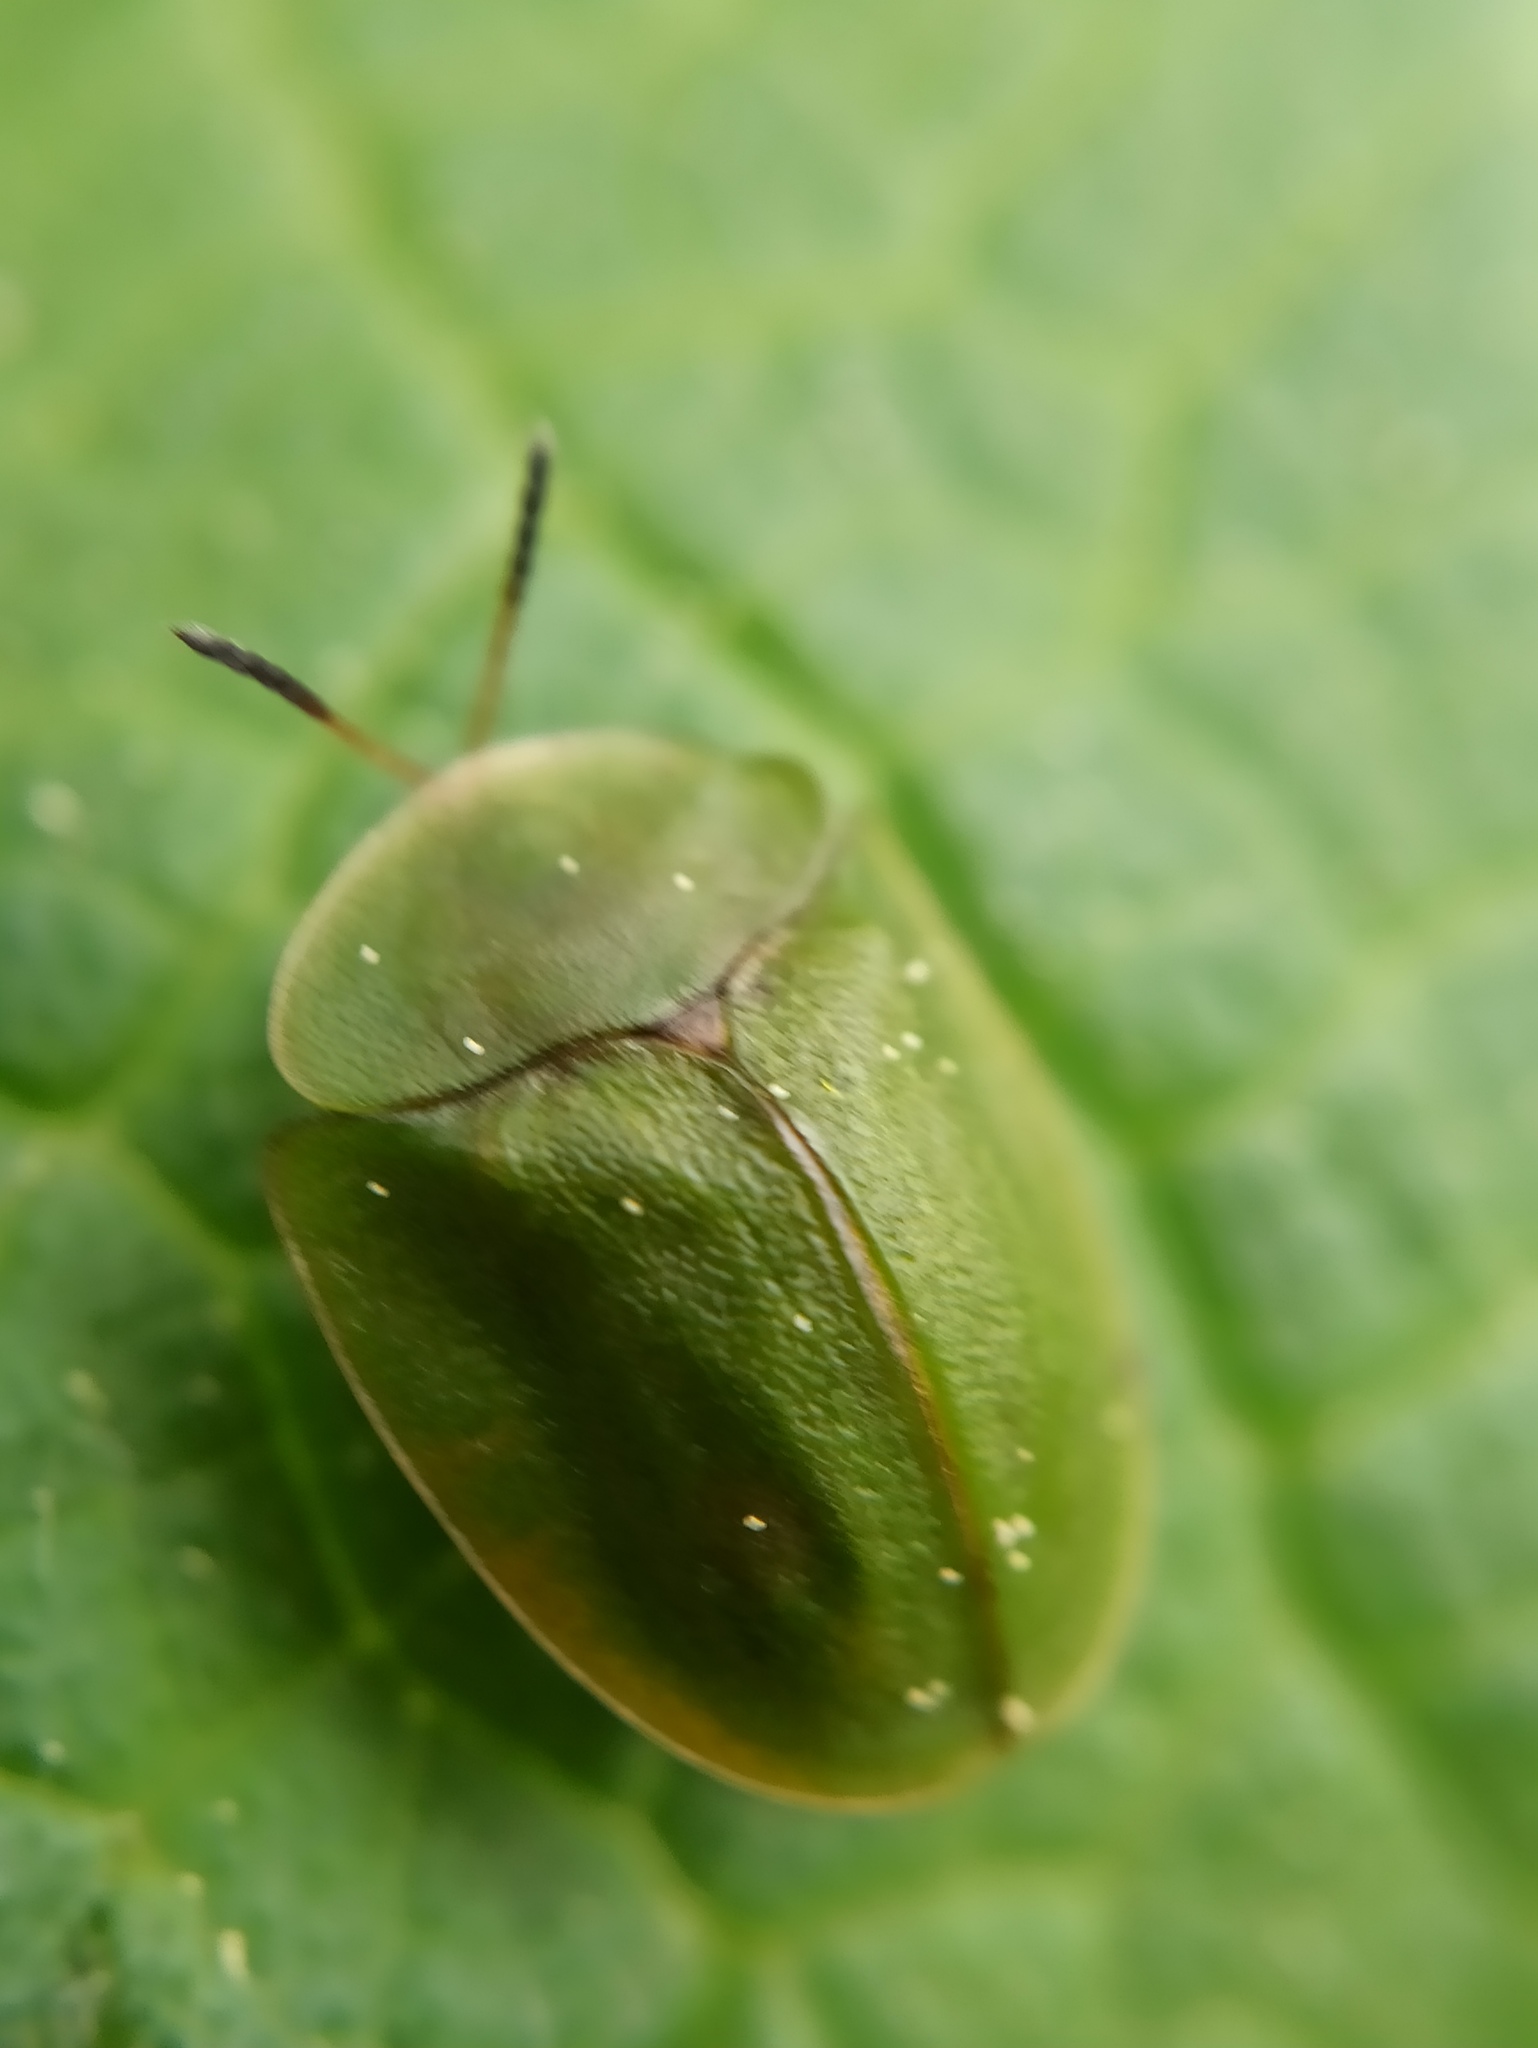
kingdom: Animalia
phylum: Arthropoda
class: Insecta
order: Coleoptera
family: Chrysomelidae
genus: Cassida
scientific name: Cassida viridis
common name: Green tortoise beetle
